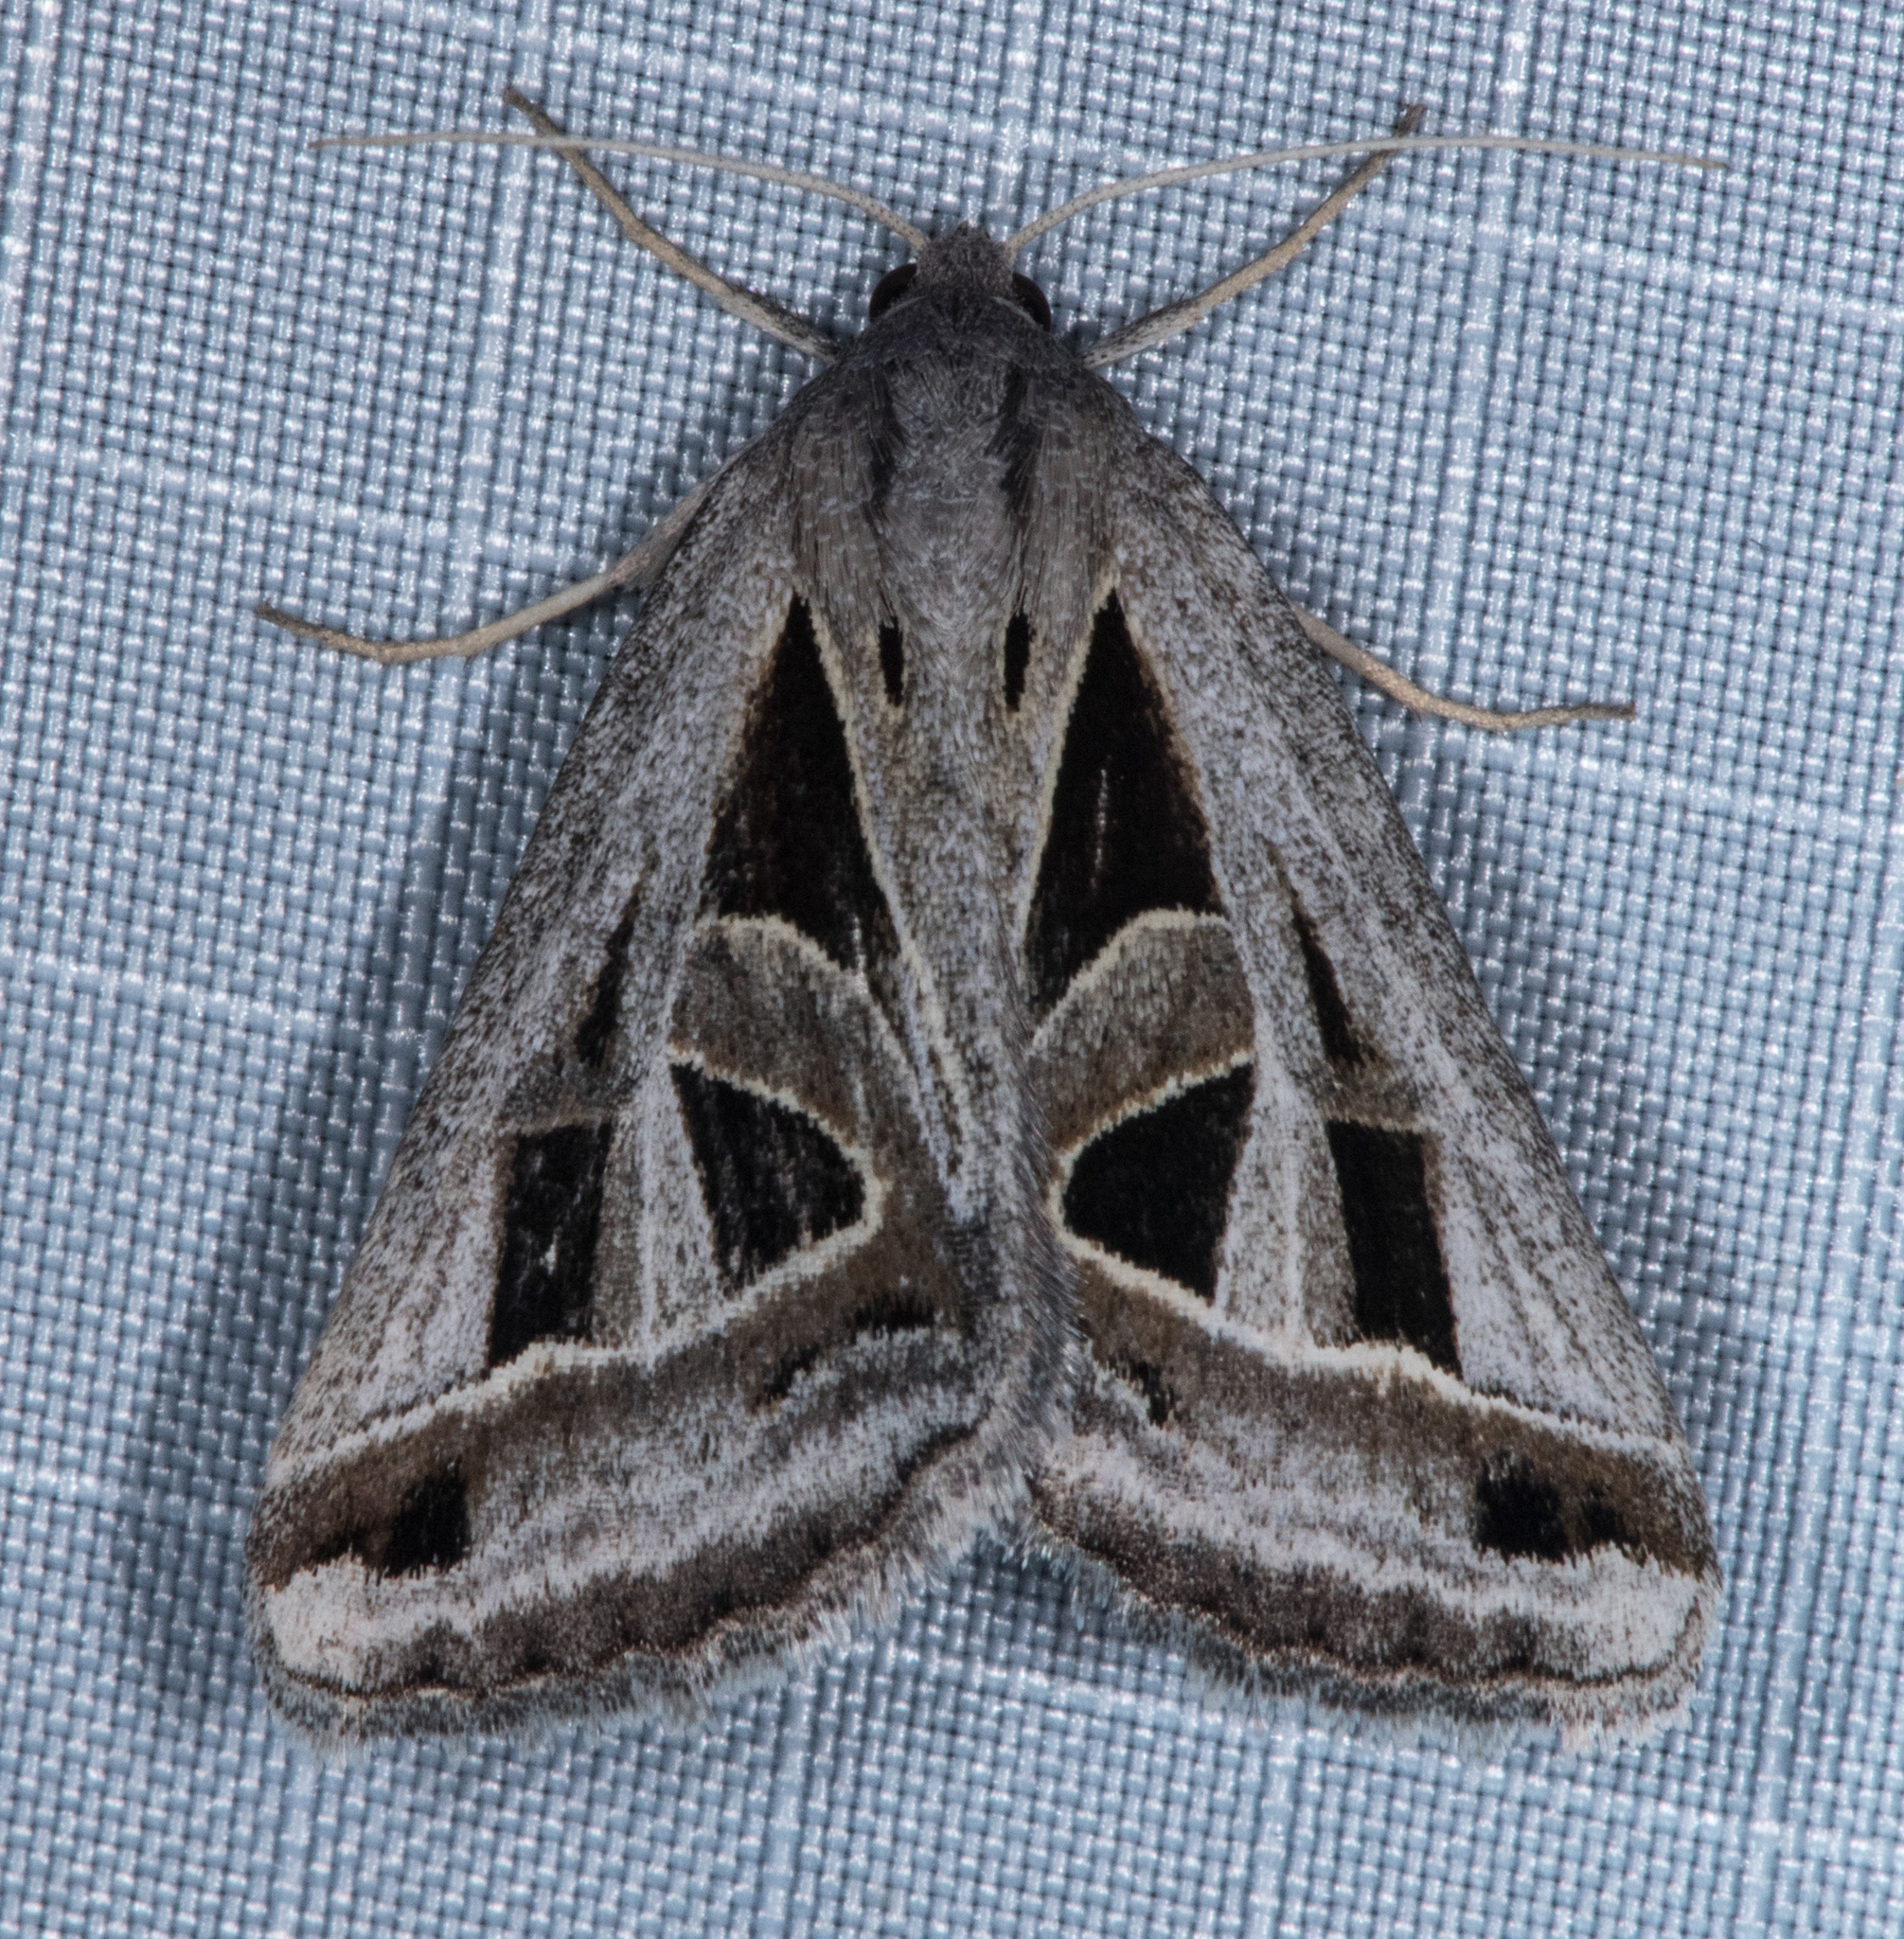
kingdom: Animalia
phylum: Arthropoda
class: Insecta
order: Lepidoptera
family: Erebidae
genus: Callistege
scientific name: Callistege diagonalis
